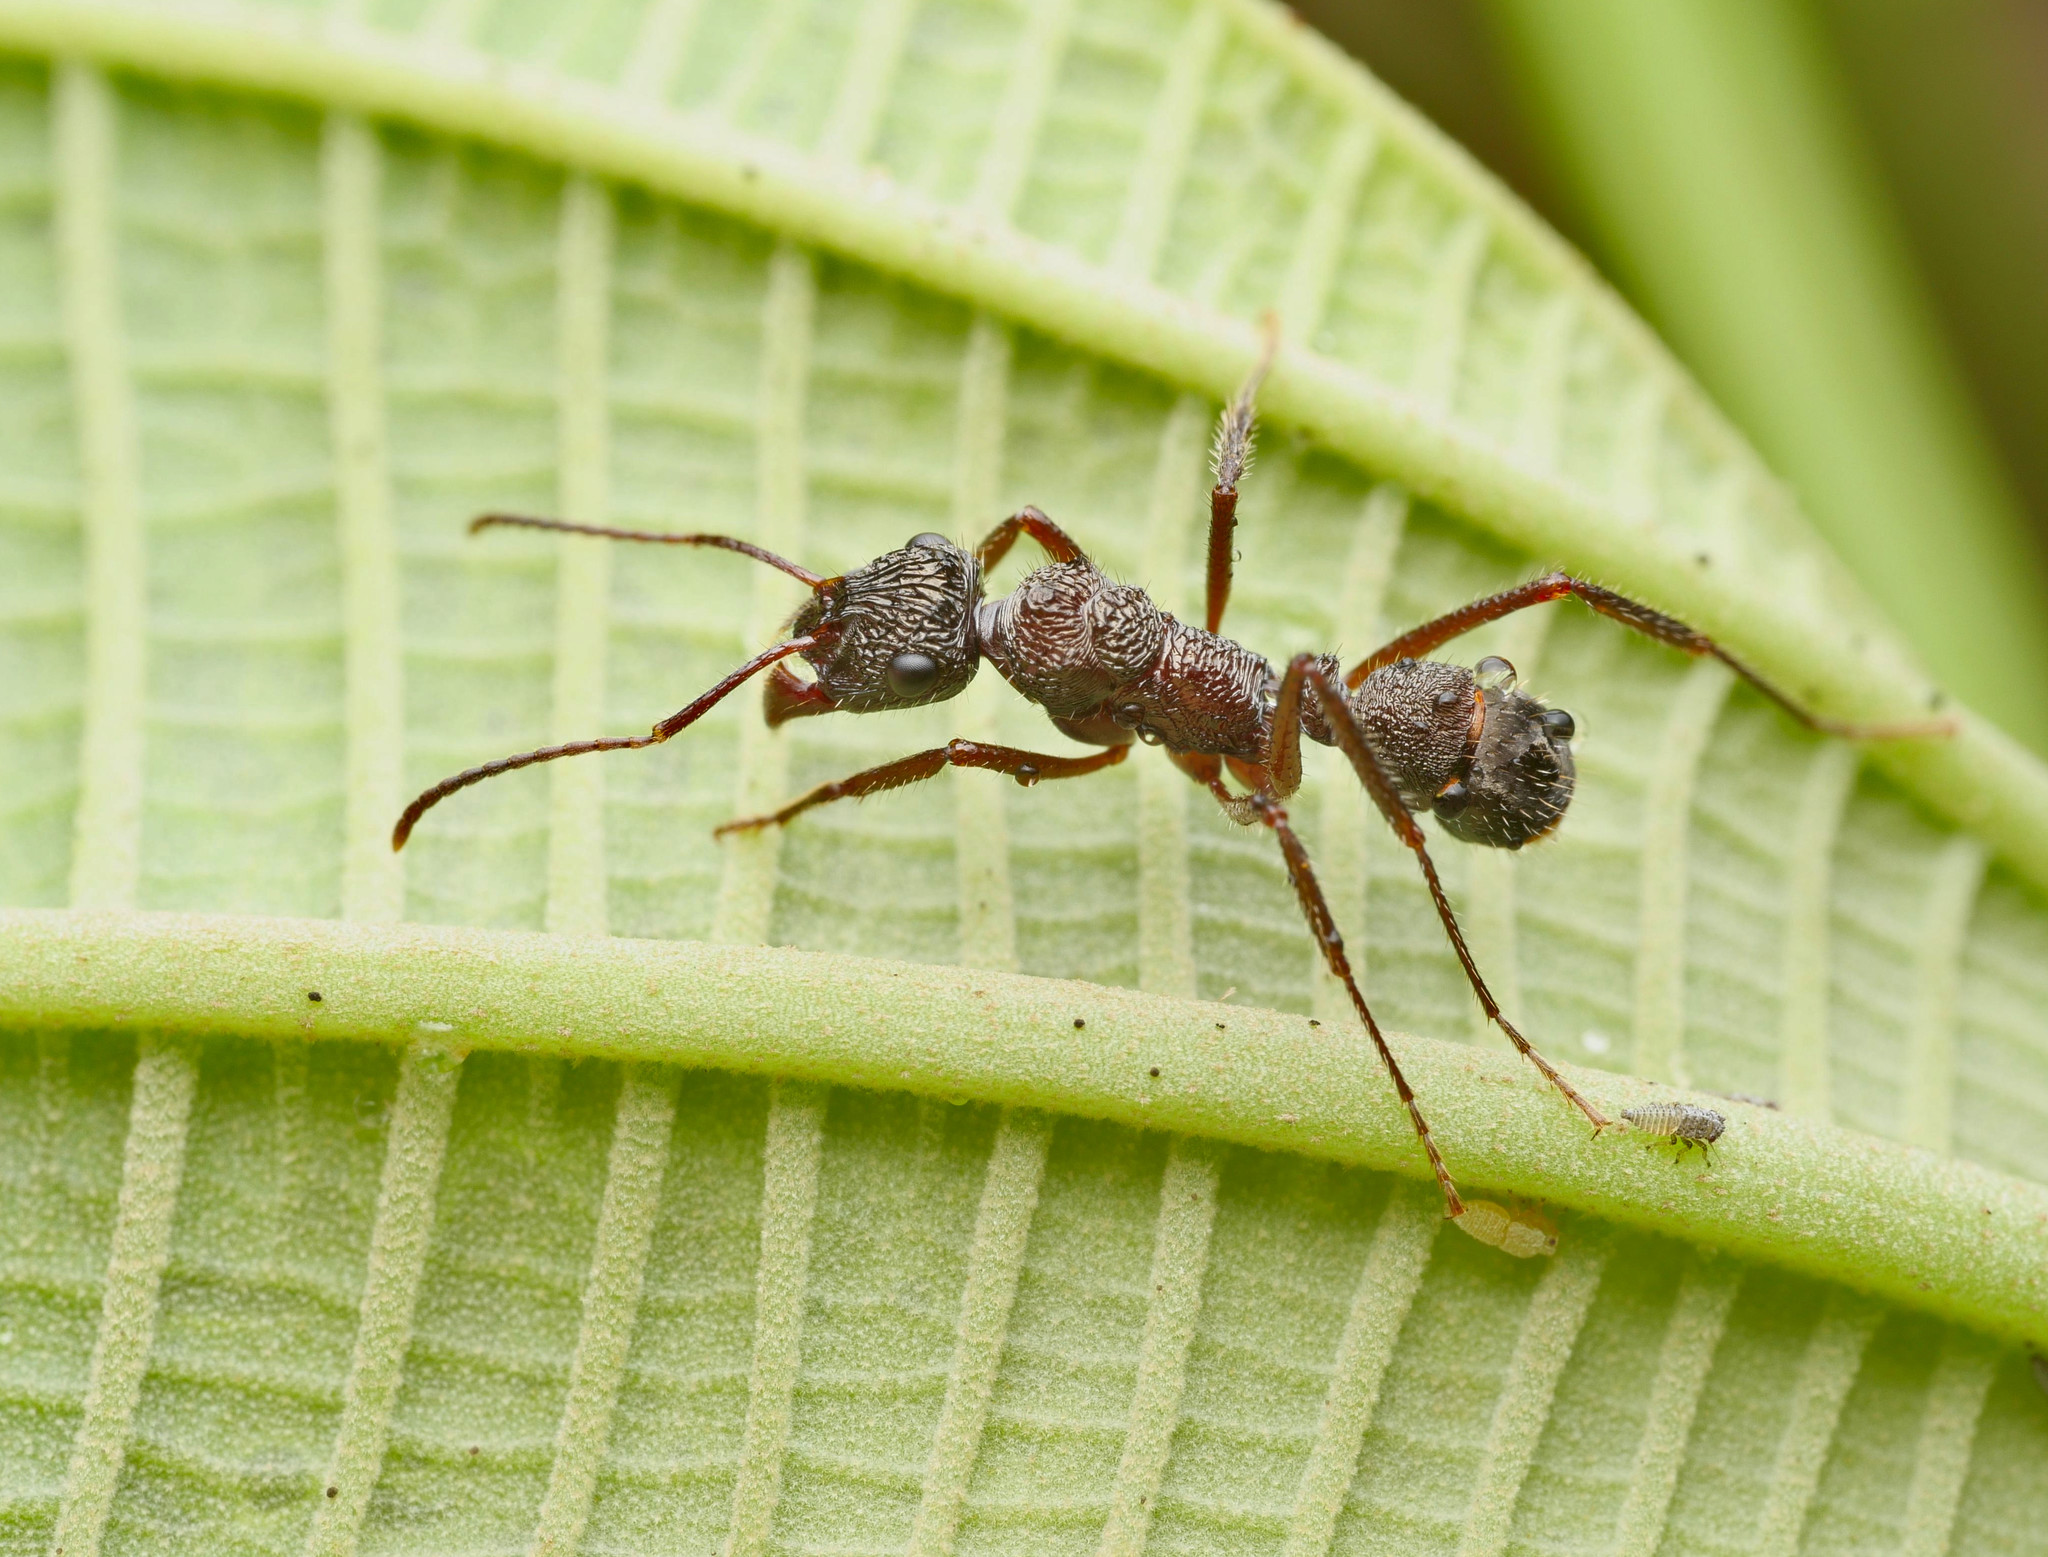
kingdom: Animalia
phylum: Arthropoda
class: Insecta
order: Hymenoptera
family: Formicidae
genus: Ectatomma
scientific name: Ectatomma ruidum
